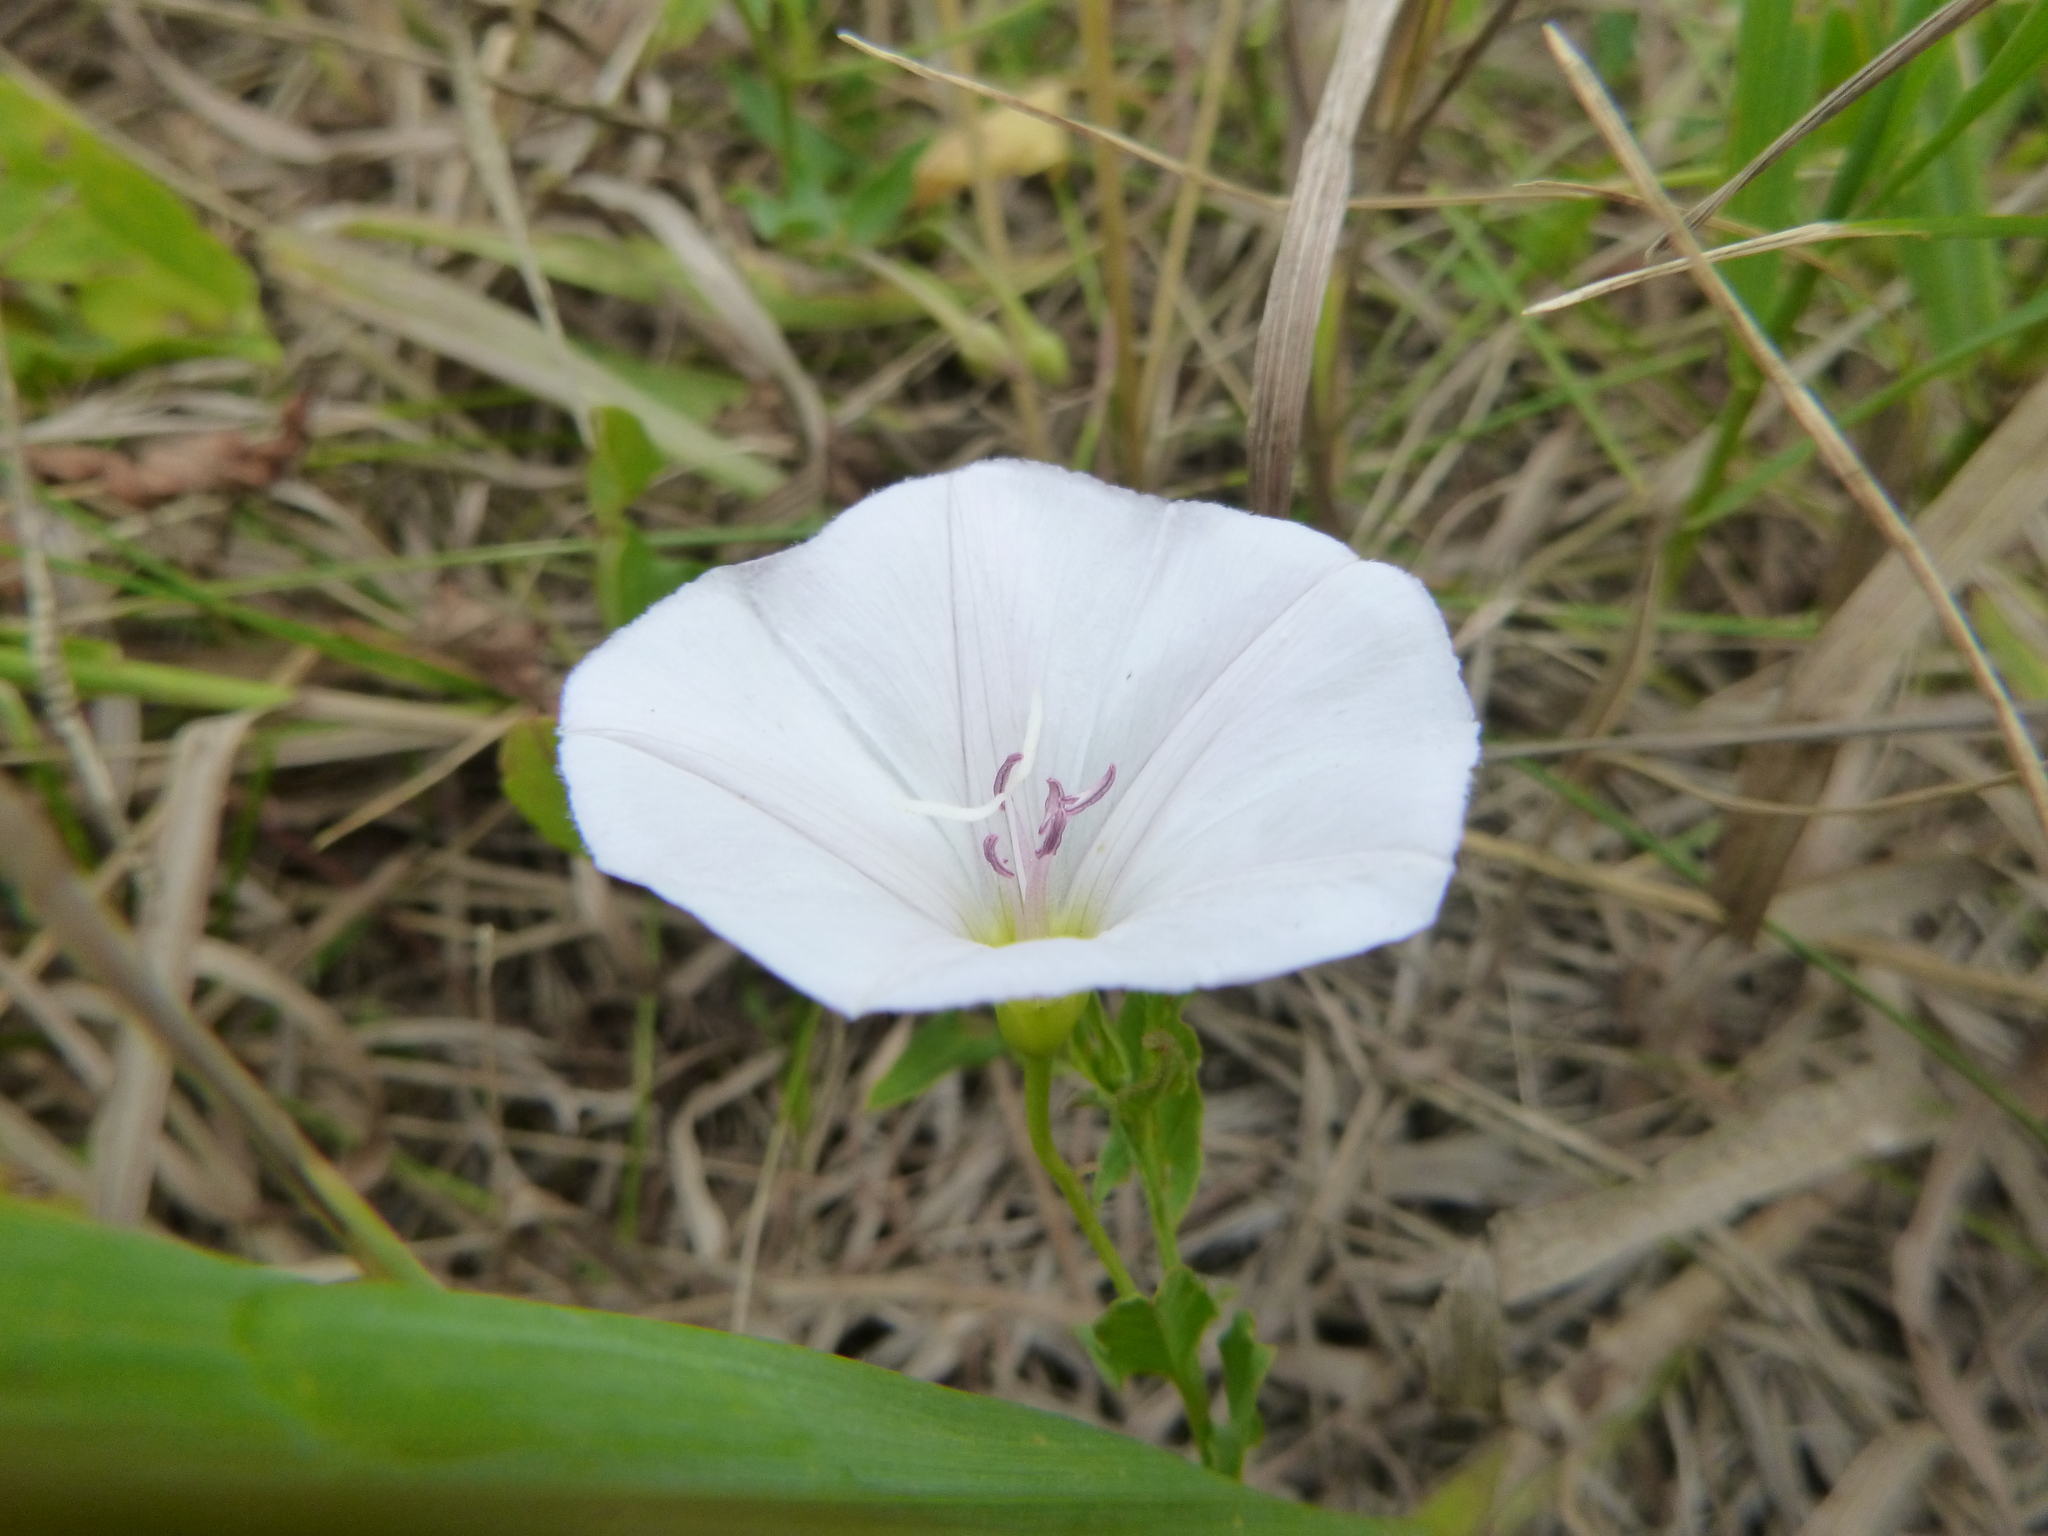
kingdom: Plantae
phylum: Tracheophyta
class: Magnoliopsida
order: Solanales
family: Convolvulaceae
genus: Convolvulus
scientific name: Convolvulus arvensis
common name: Field bindweed
